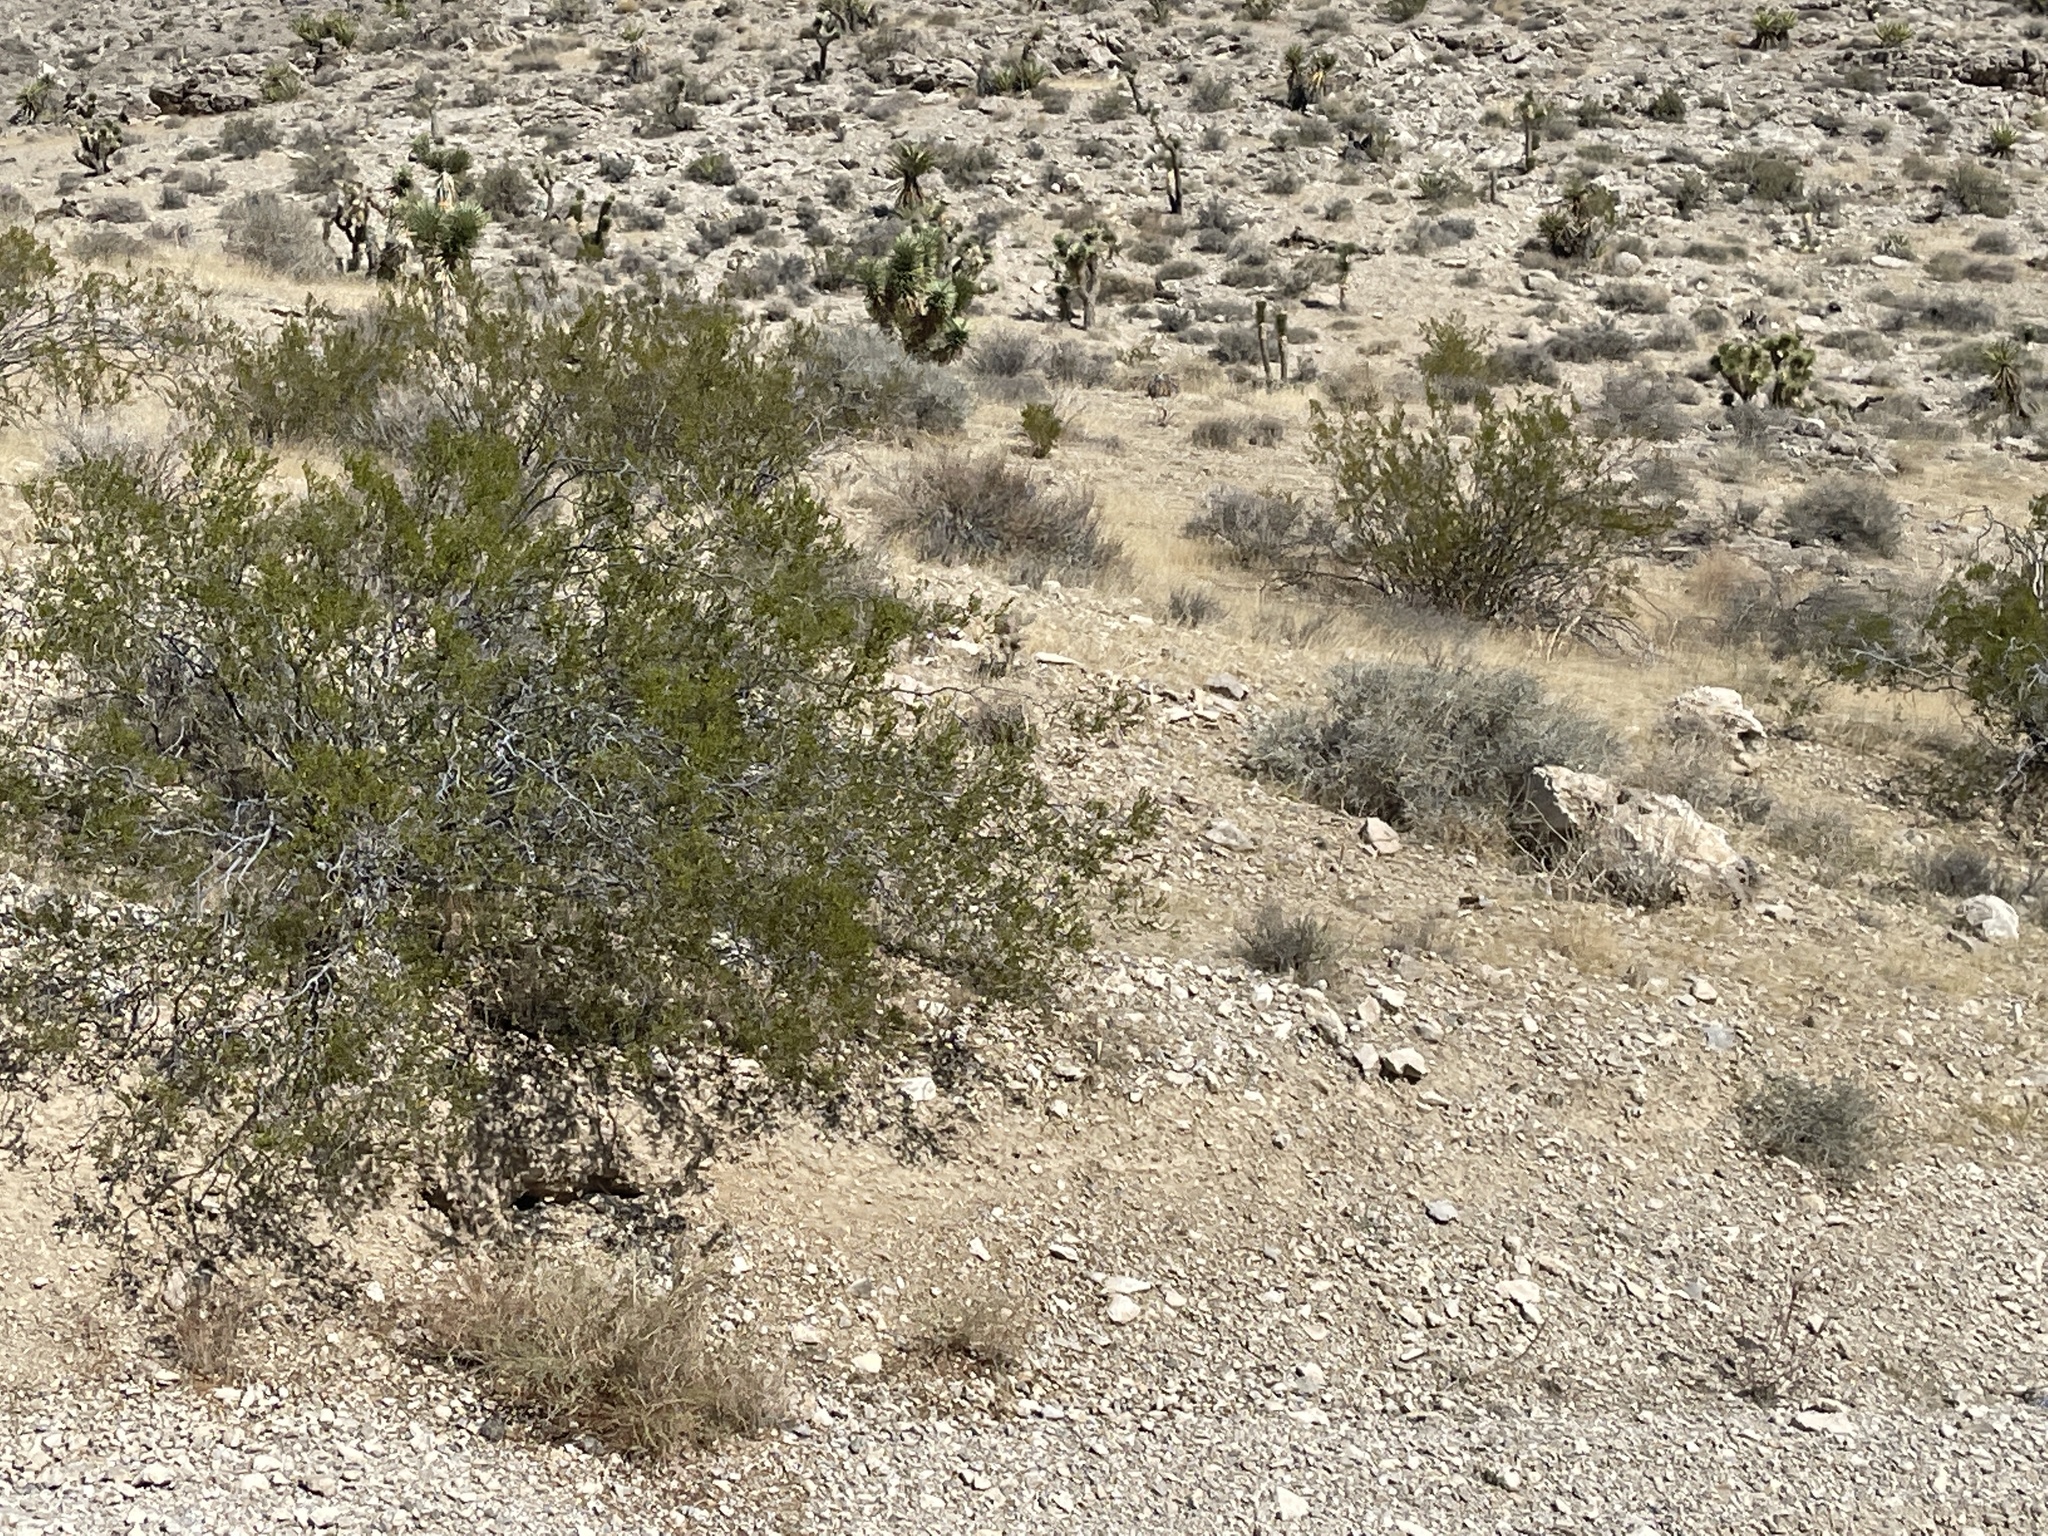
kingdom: Plantae
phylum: Tracheophyta
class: Magnoliopsida
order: Zygophyllales
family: Zygophyllaceae
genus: Larrea
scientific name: Larrea tridentata
